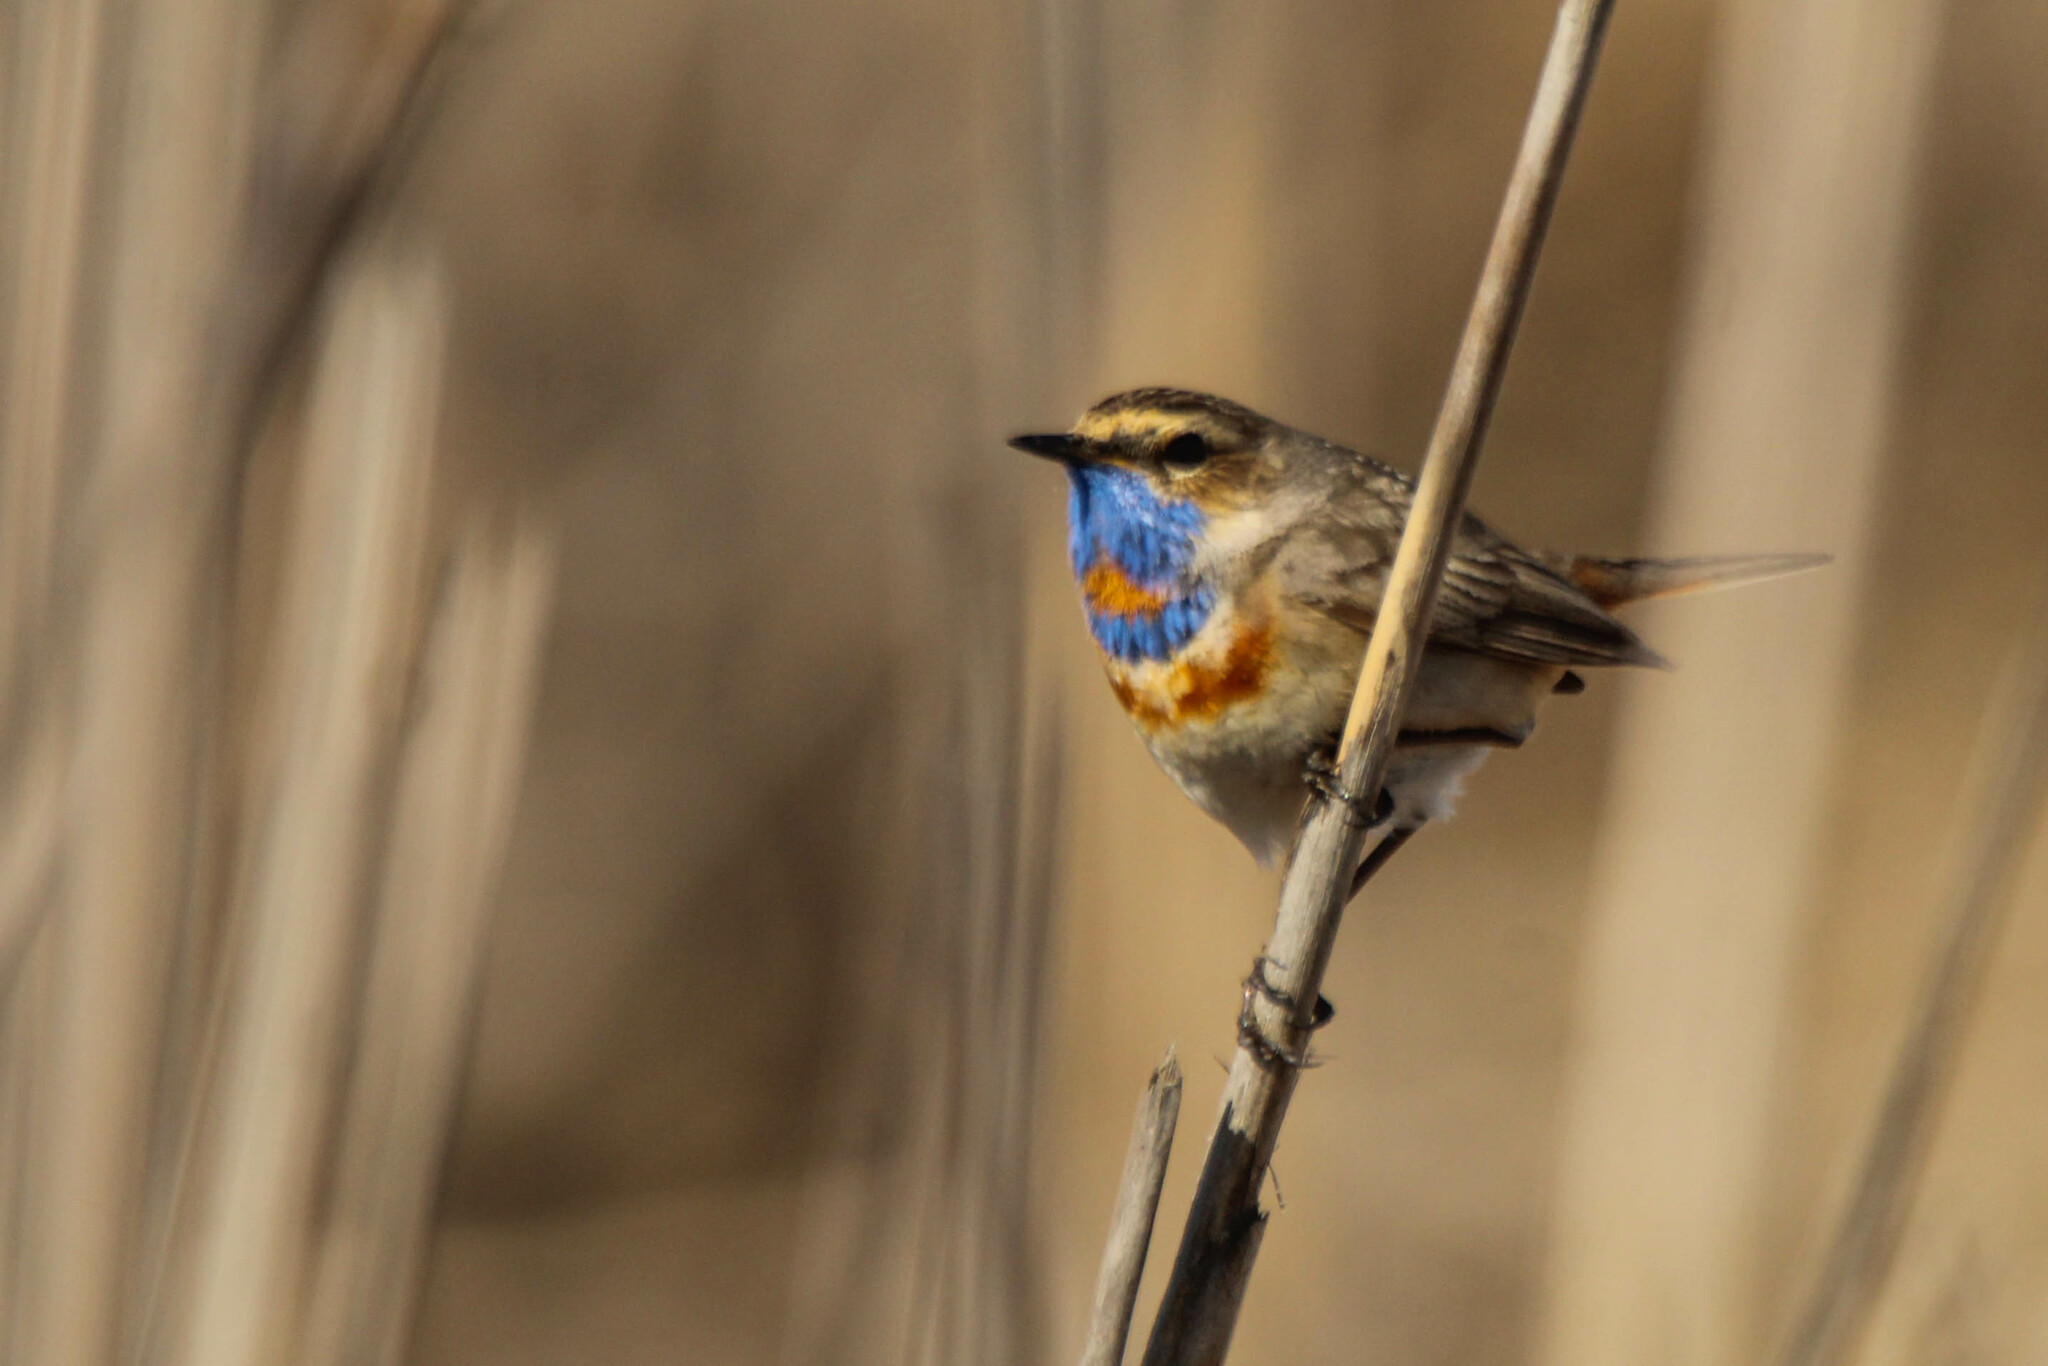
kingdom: Animalia
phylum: Chordata
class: Aves
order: Passeriformes
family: Muscicapidae
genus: Luscinia
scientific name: Luscinia svecica
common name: Bluethroat
